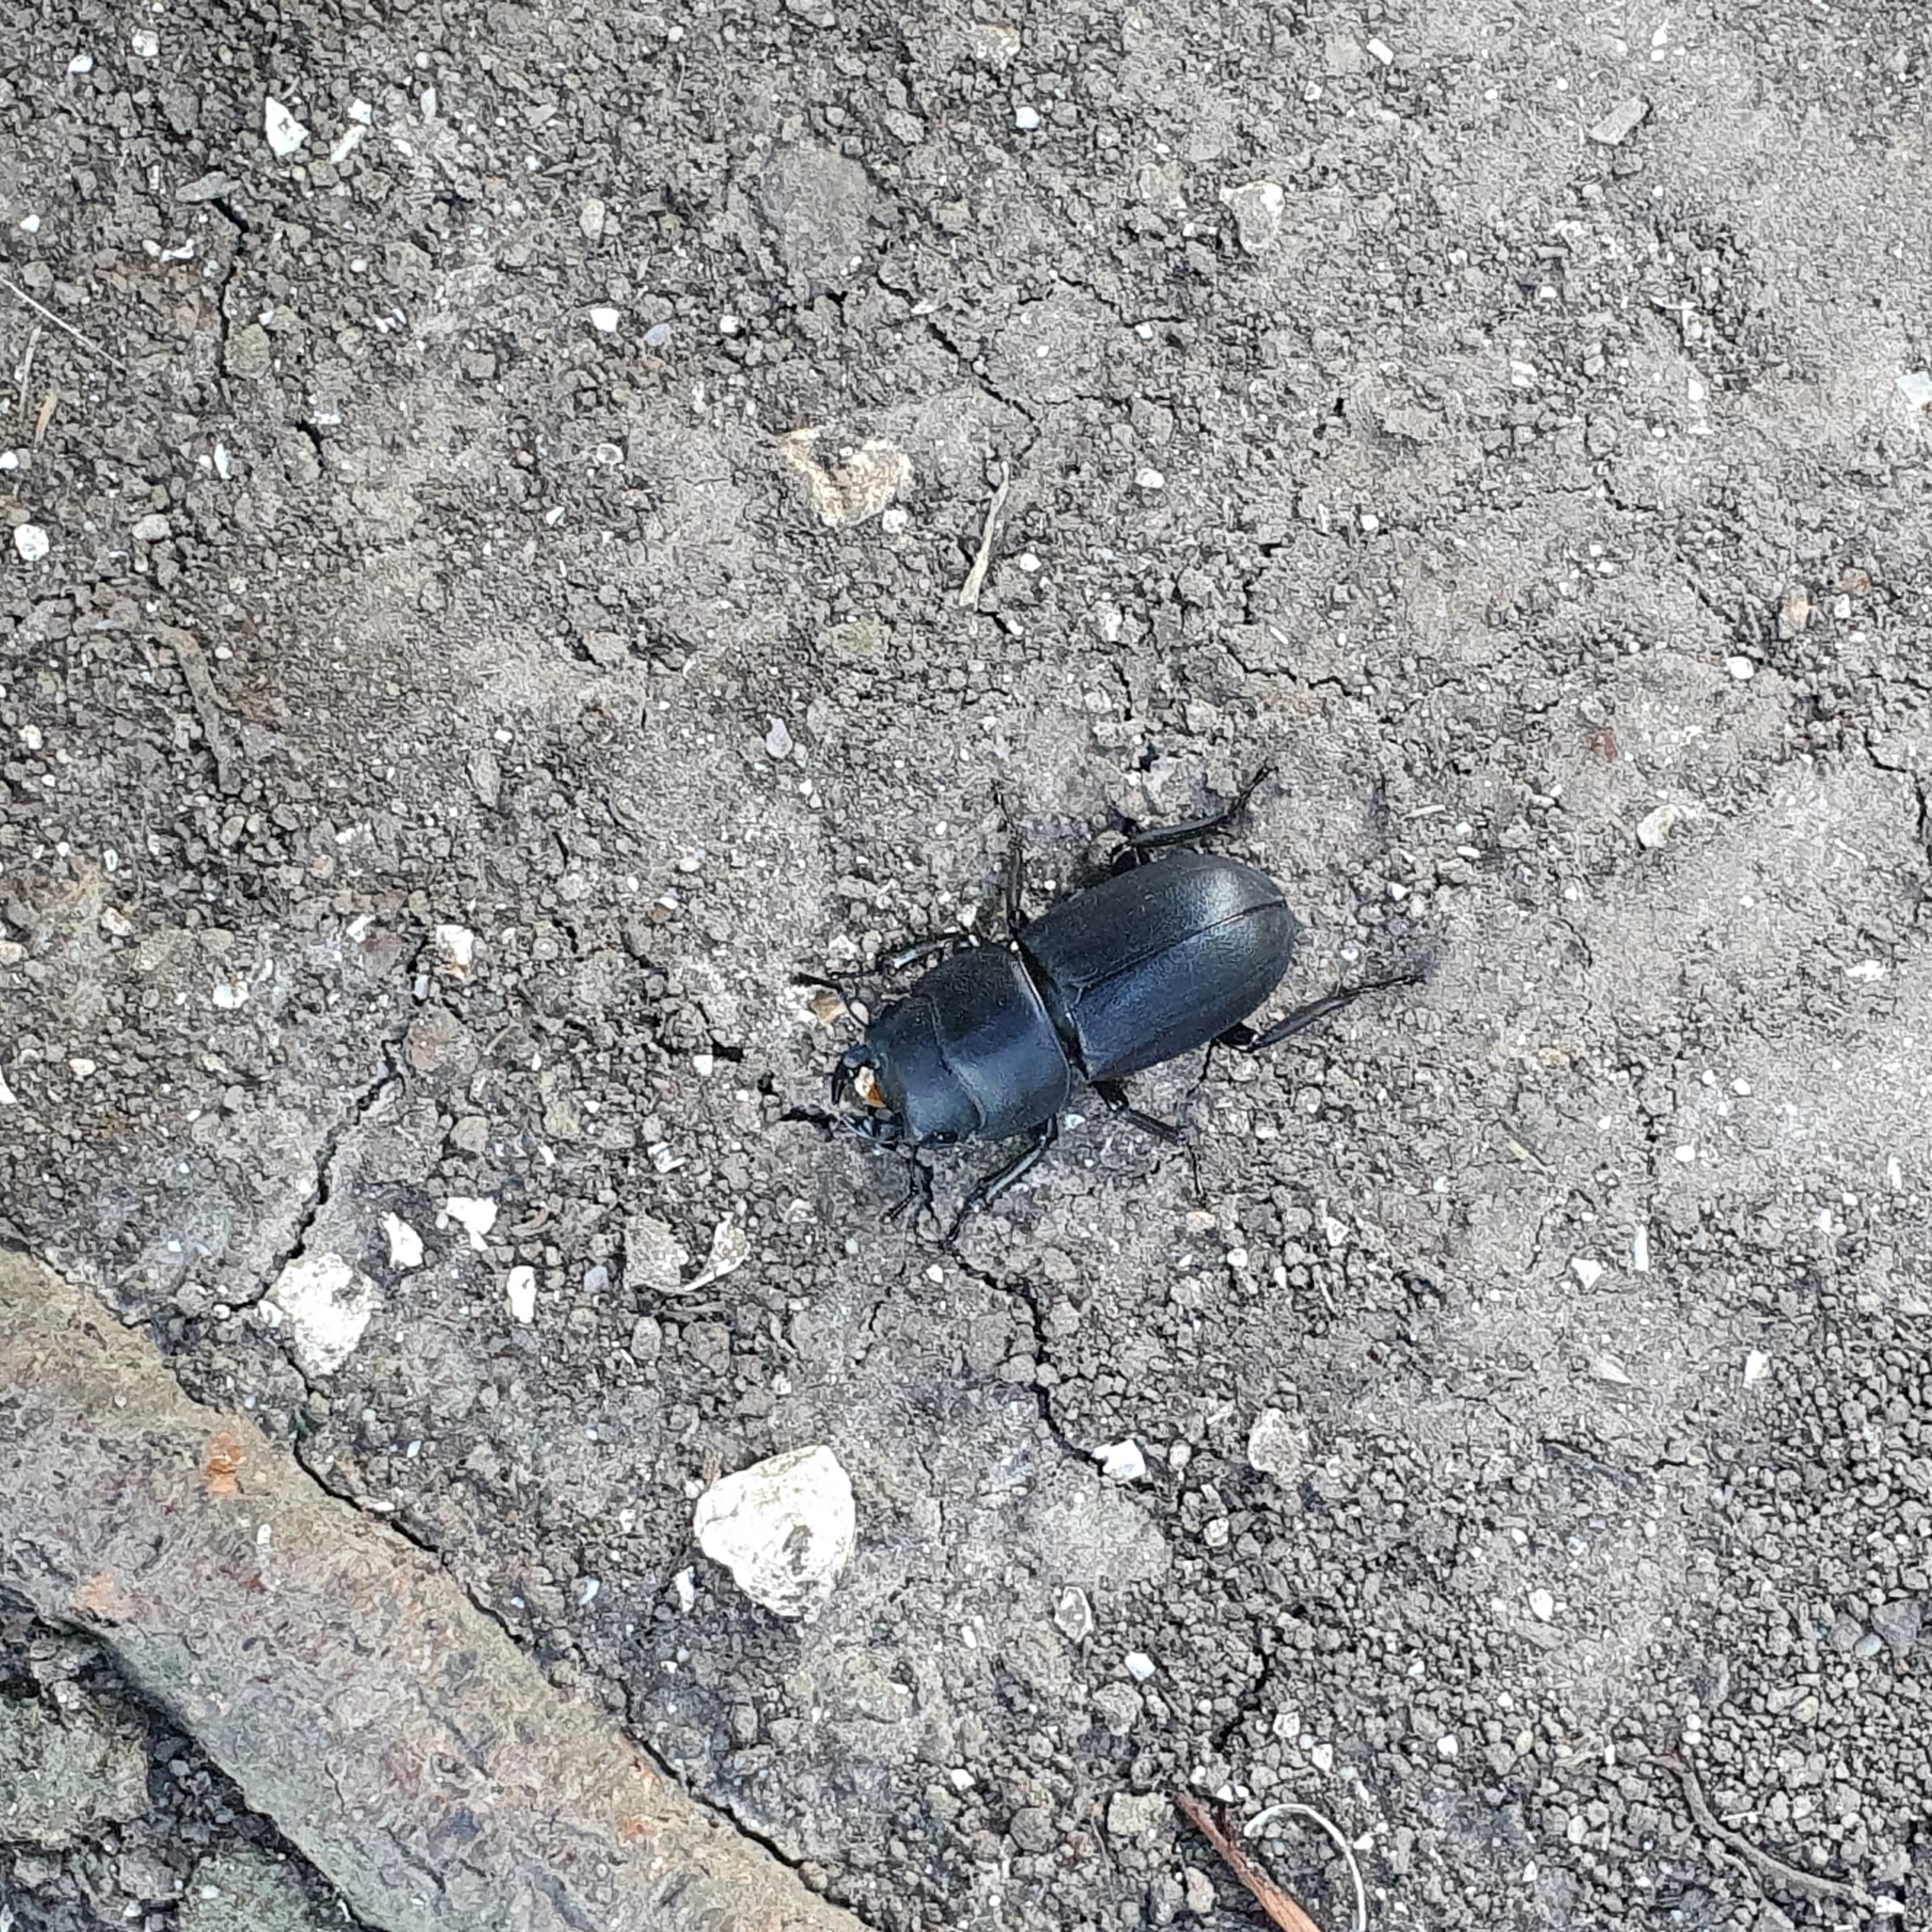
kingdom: Animalia
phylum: Arthropoda
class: Insecta
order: Coleoptera
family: Lucanidae
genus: Dorcus
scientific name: Dorcus parallelipipedus
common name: Lesser stag beetle
